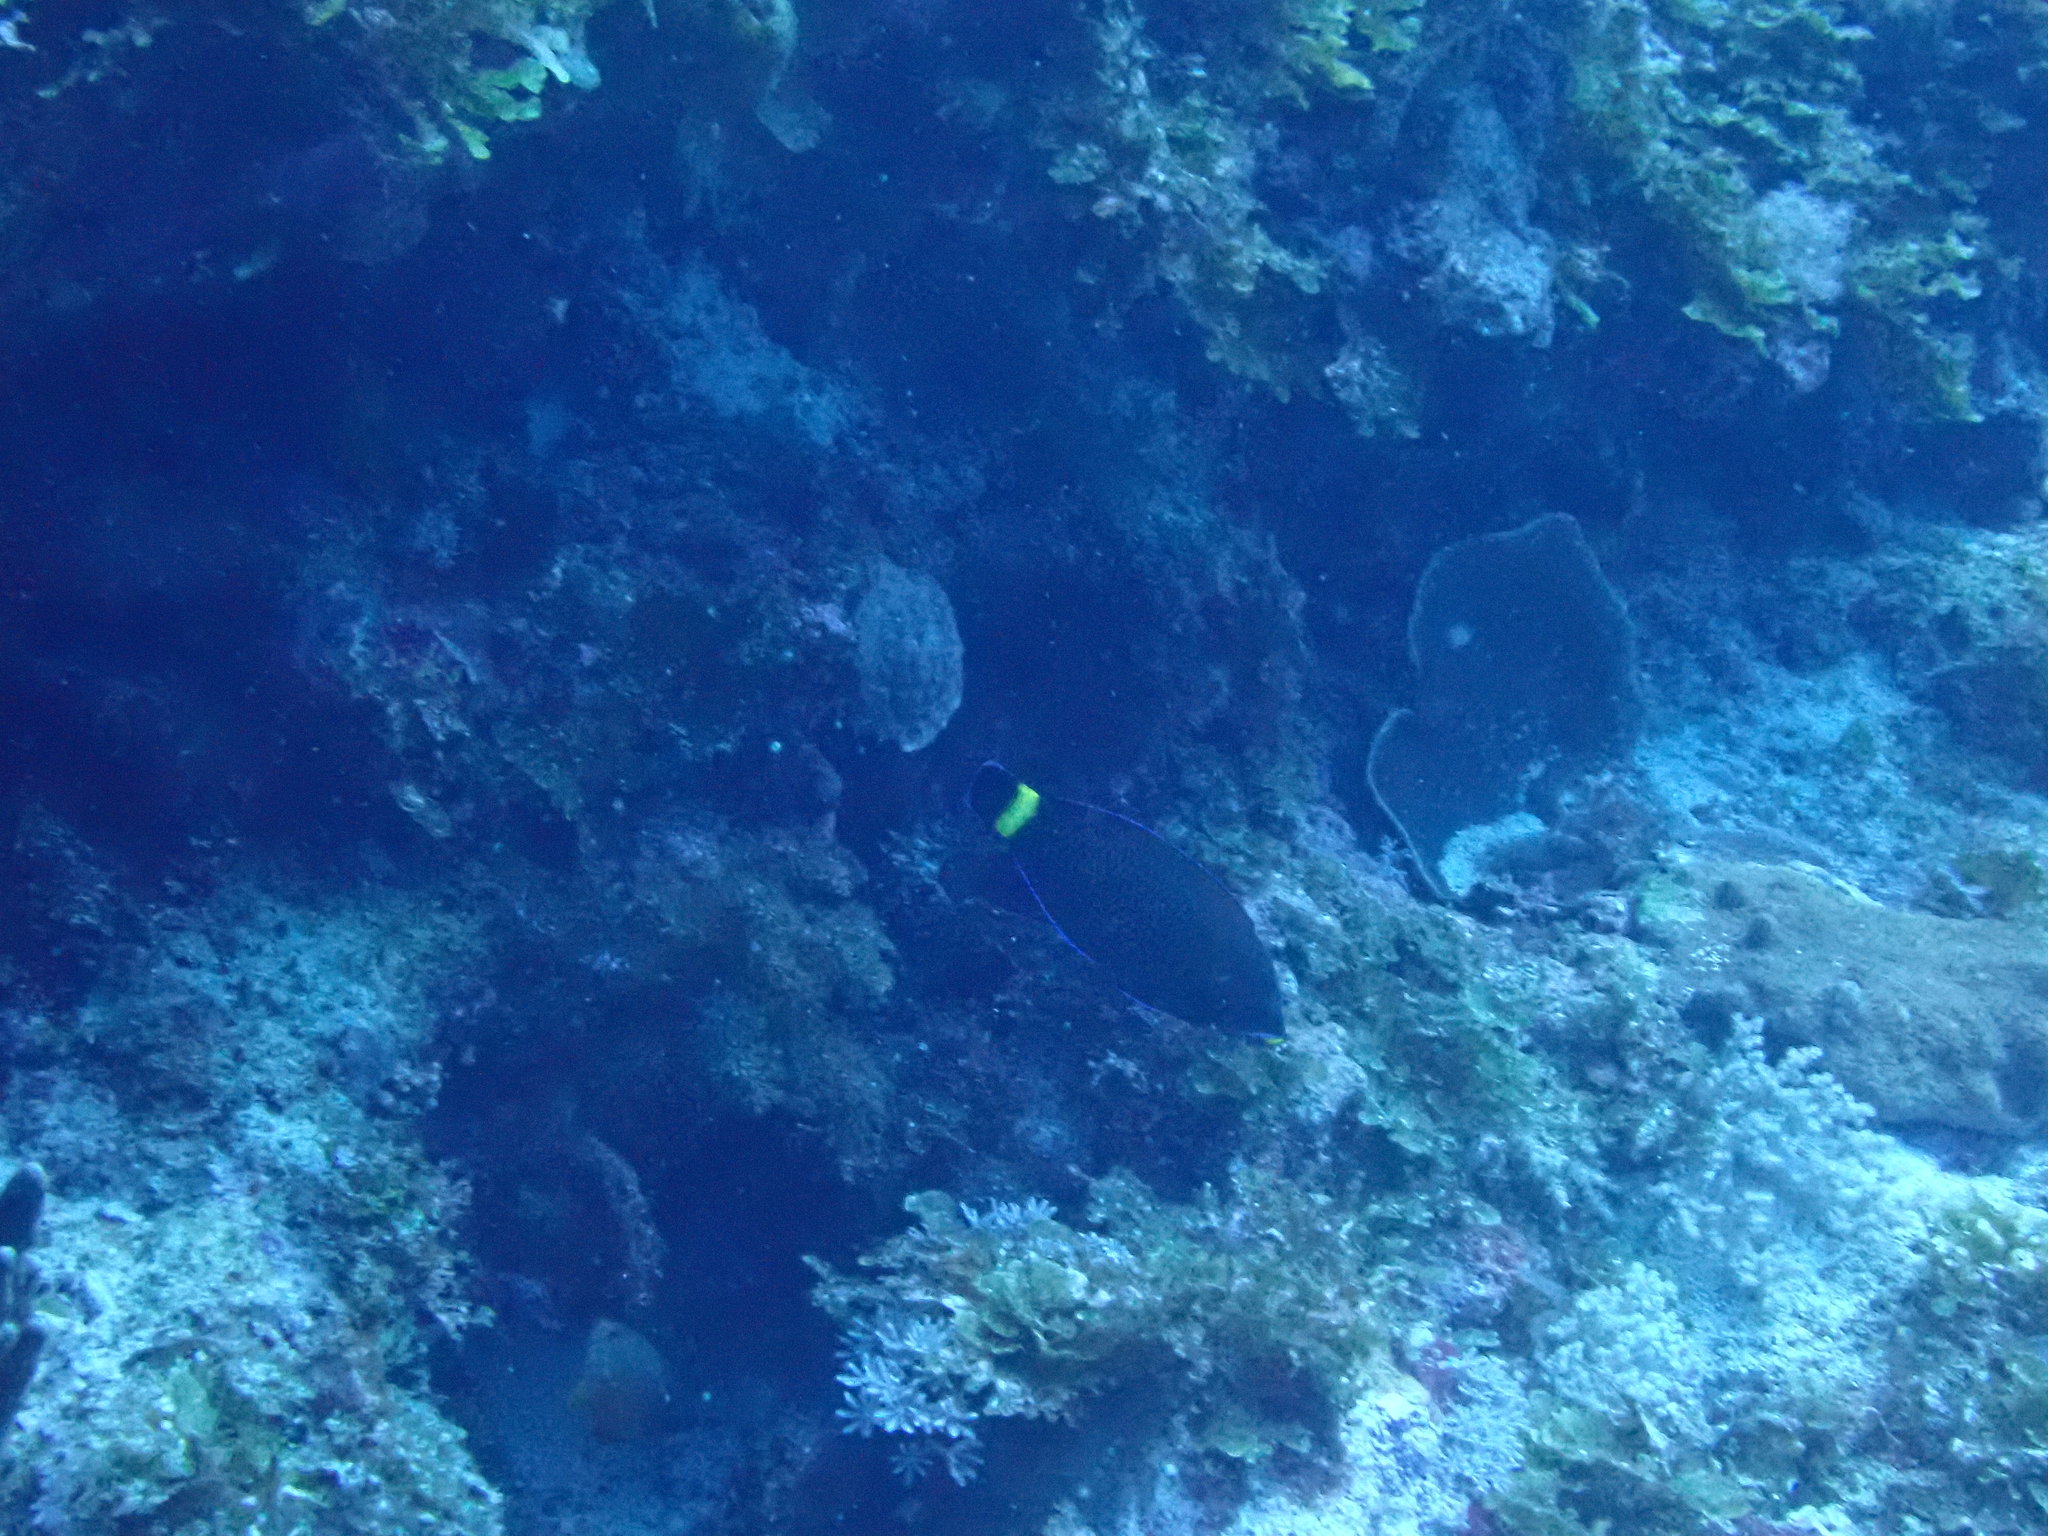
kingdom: Animalia
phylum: Chordata
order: Perciformes
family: Labridae
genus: Pseudodax
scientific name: Pseudodax moluccanus
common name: Chiseltooth wrasse
